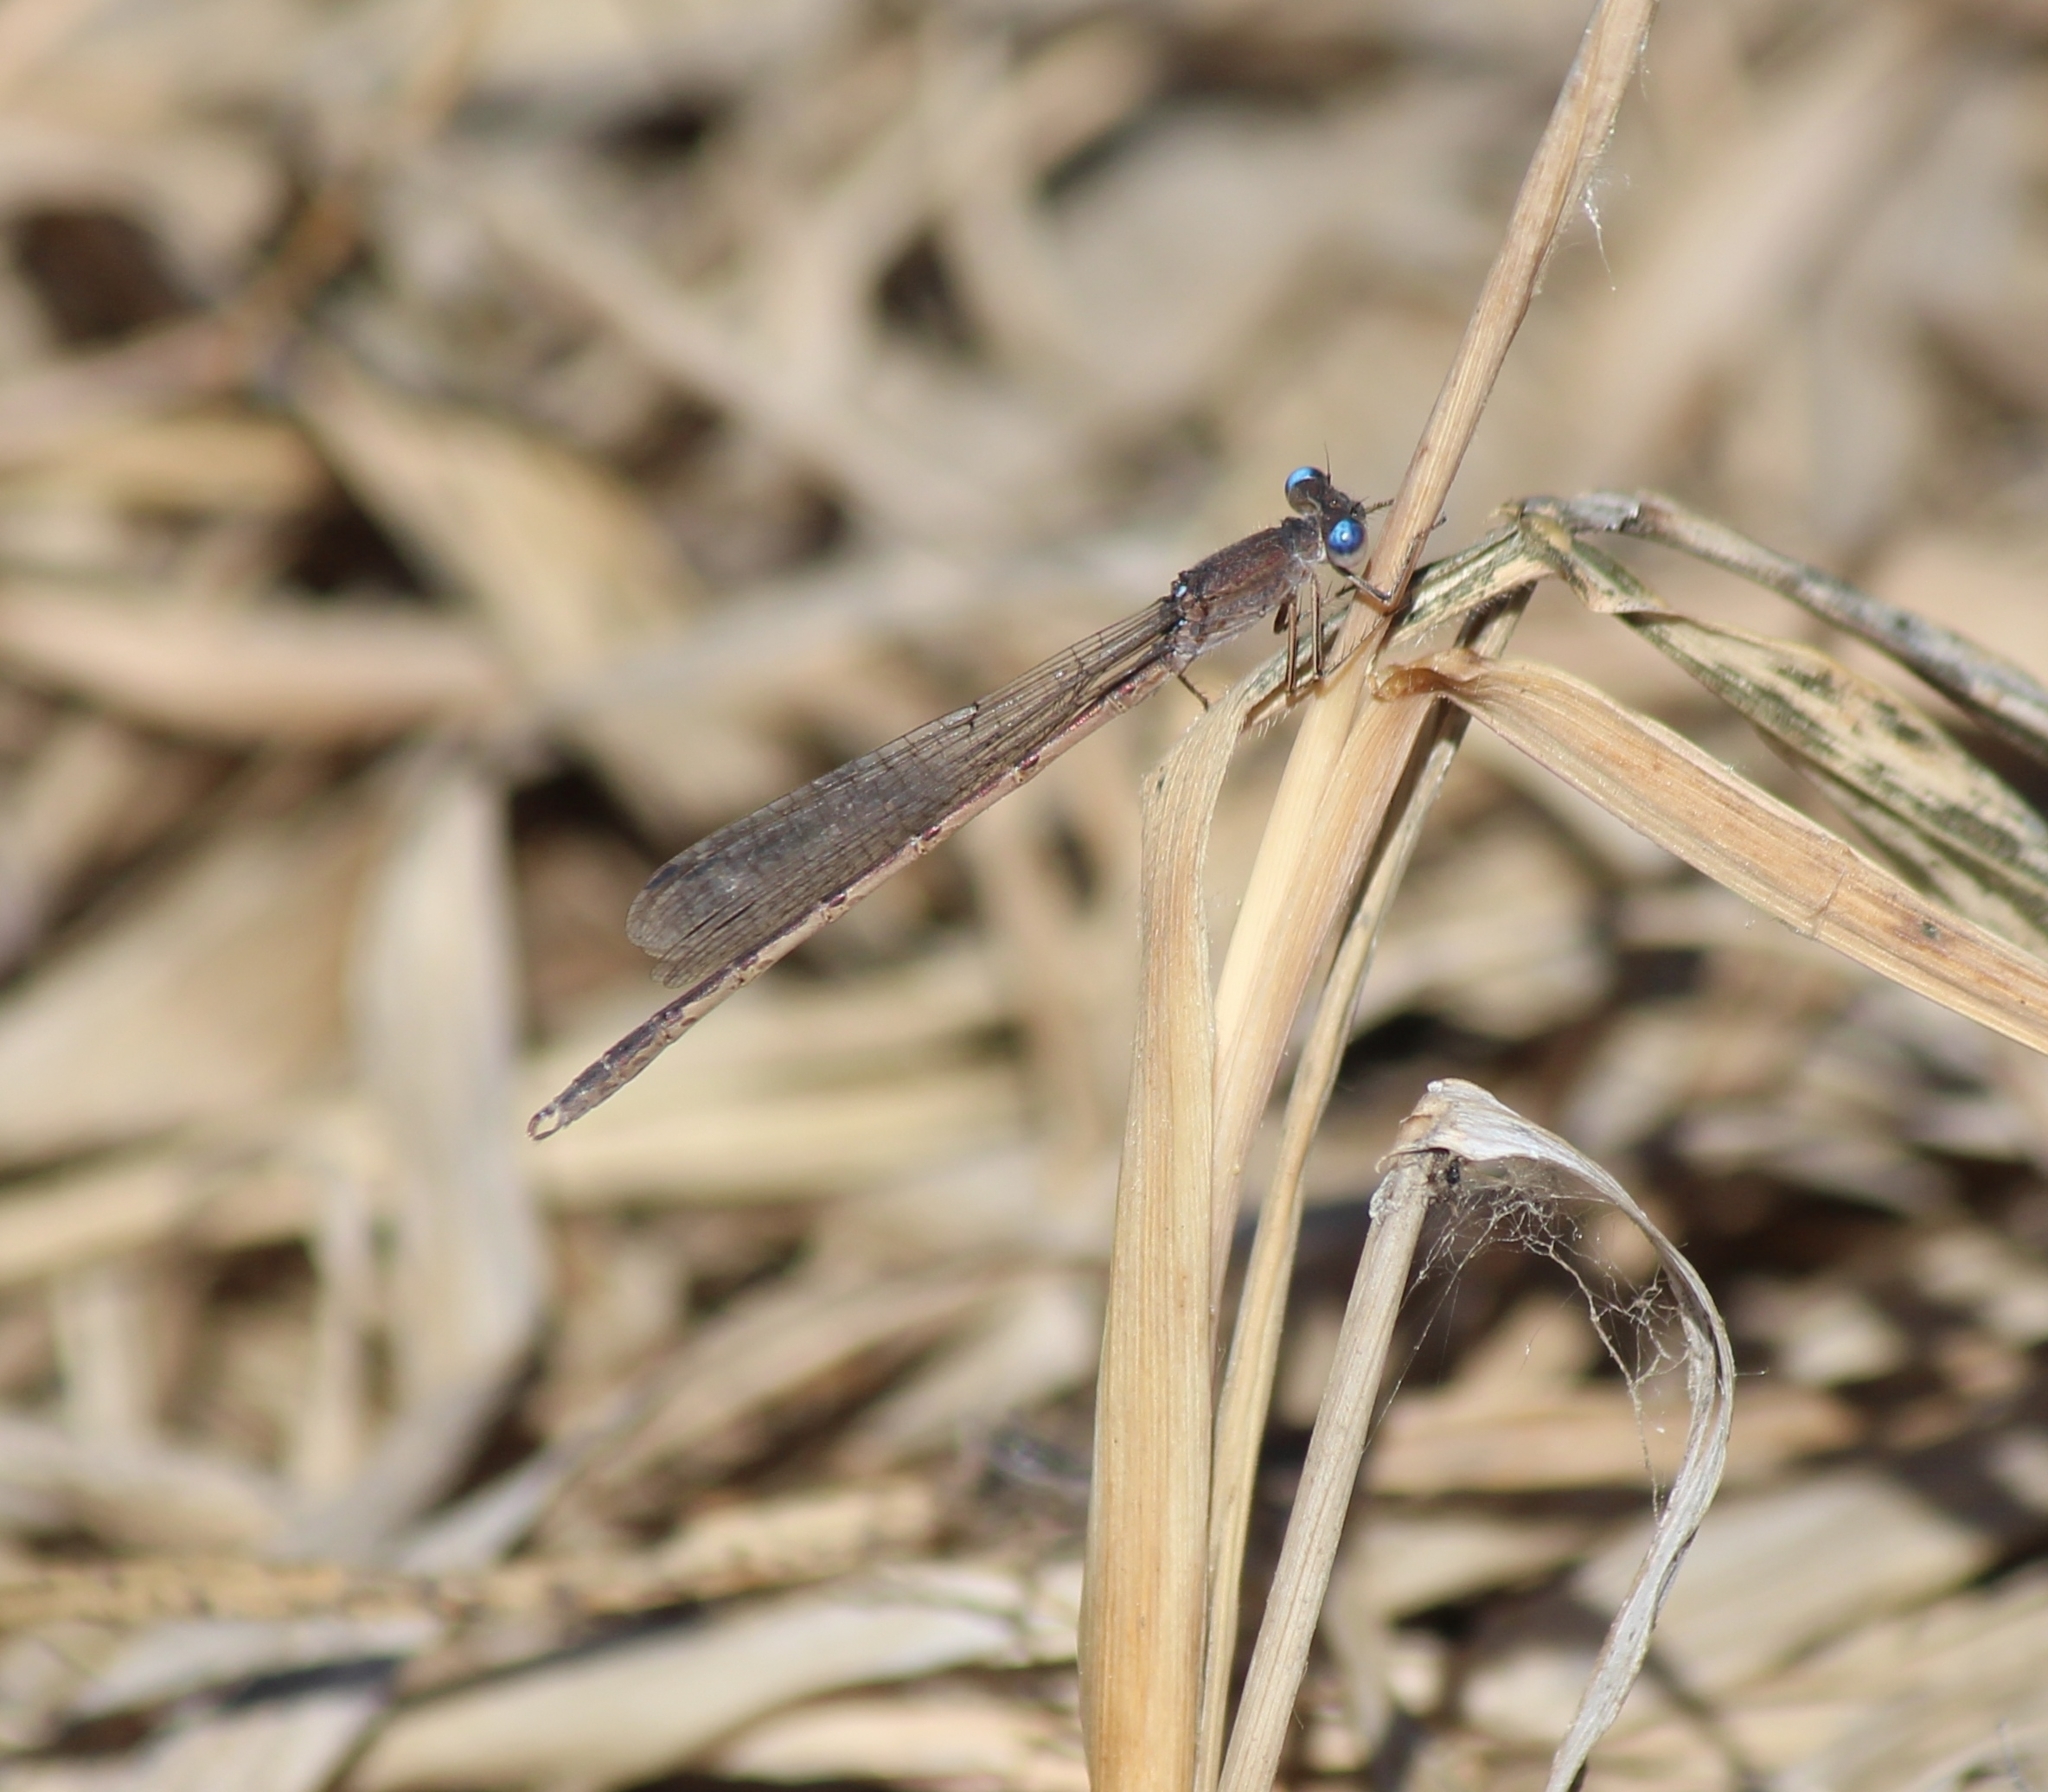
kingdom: Animalia
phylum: Arthropoda
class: Insecta
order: Odonata
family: Lestidae
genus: Sympecma
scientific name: Sympecma paedisca
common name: Siberian winter damsel
